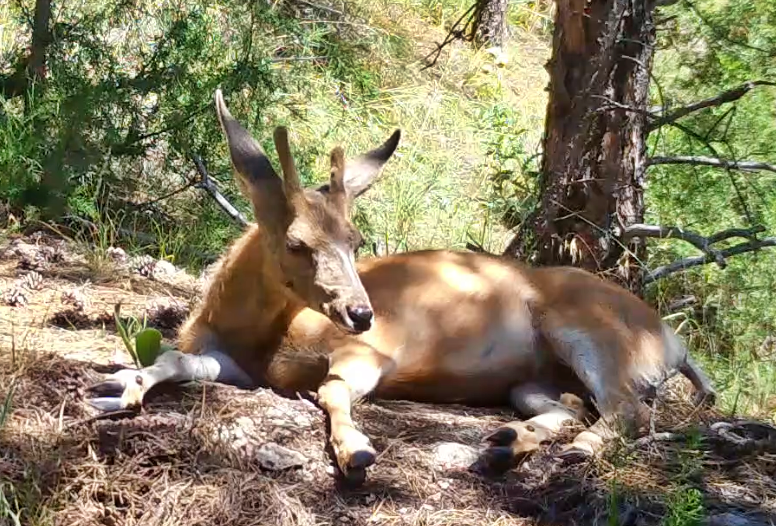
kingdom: Animalia
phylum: Chordata
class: Mammalia
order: Artiodactyla
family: Cervidae
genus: Odocoileus
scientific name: Odocoileus hemionus
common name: Mule deer
